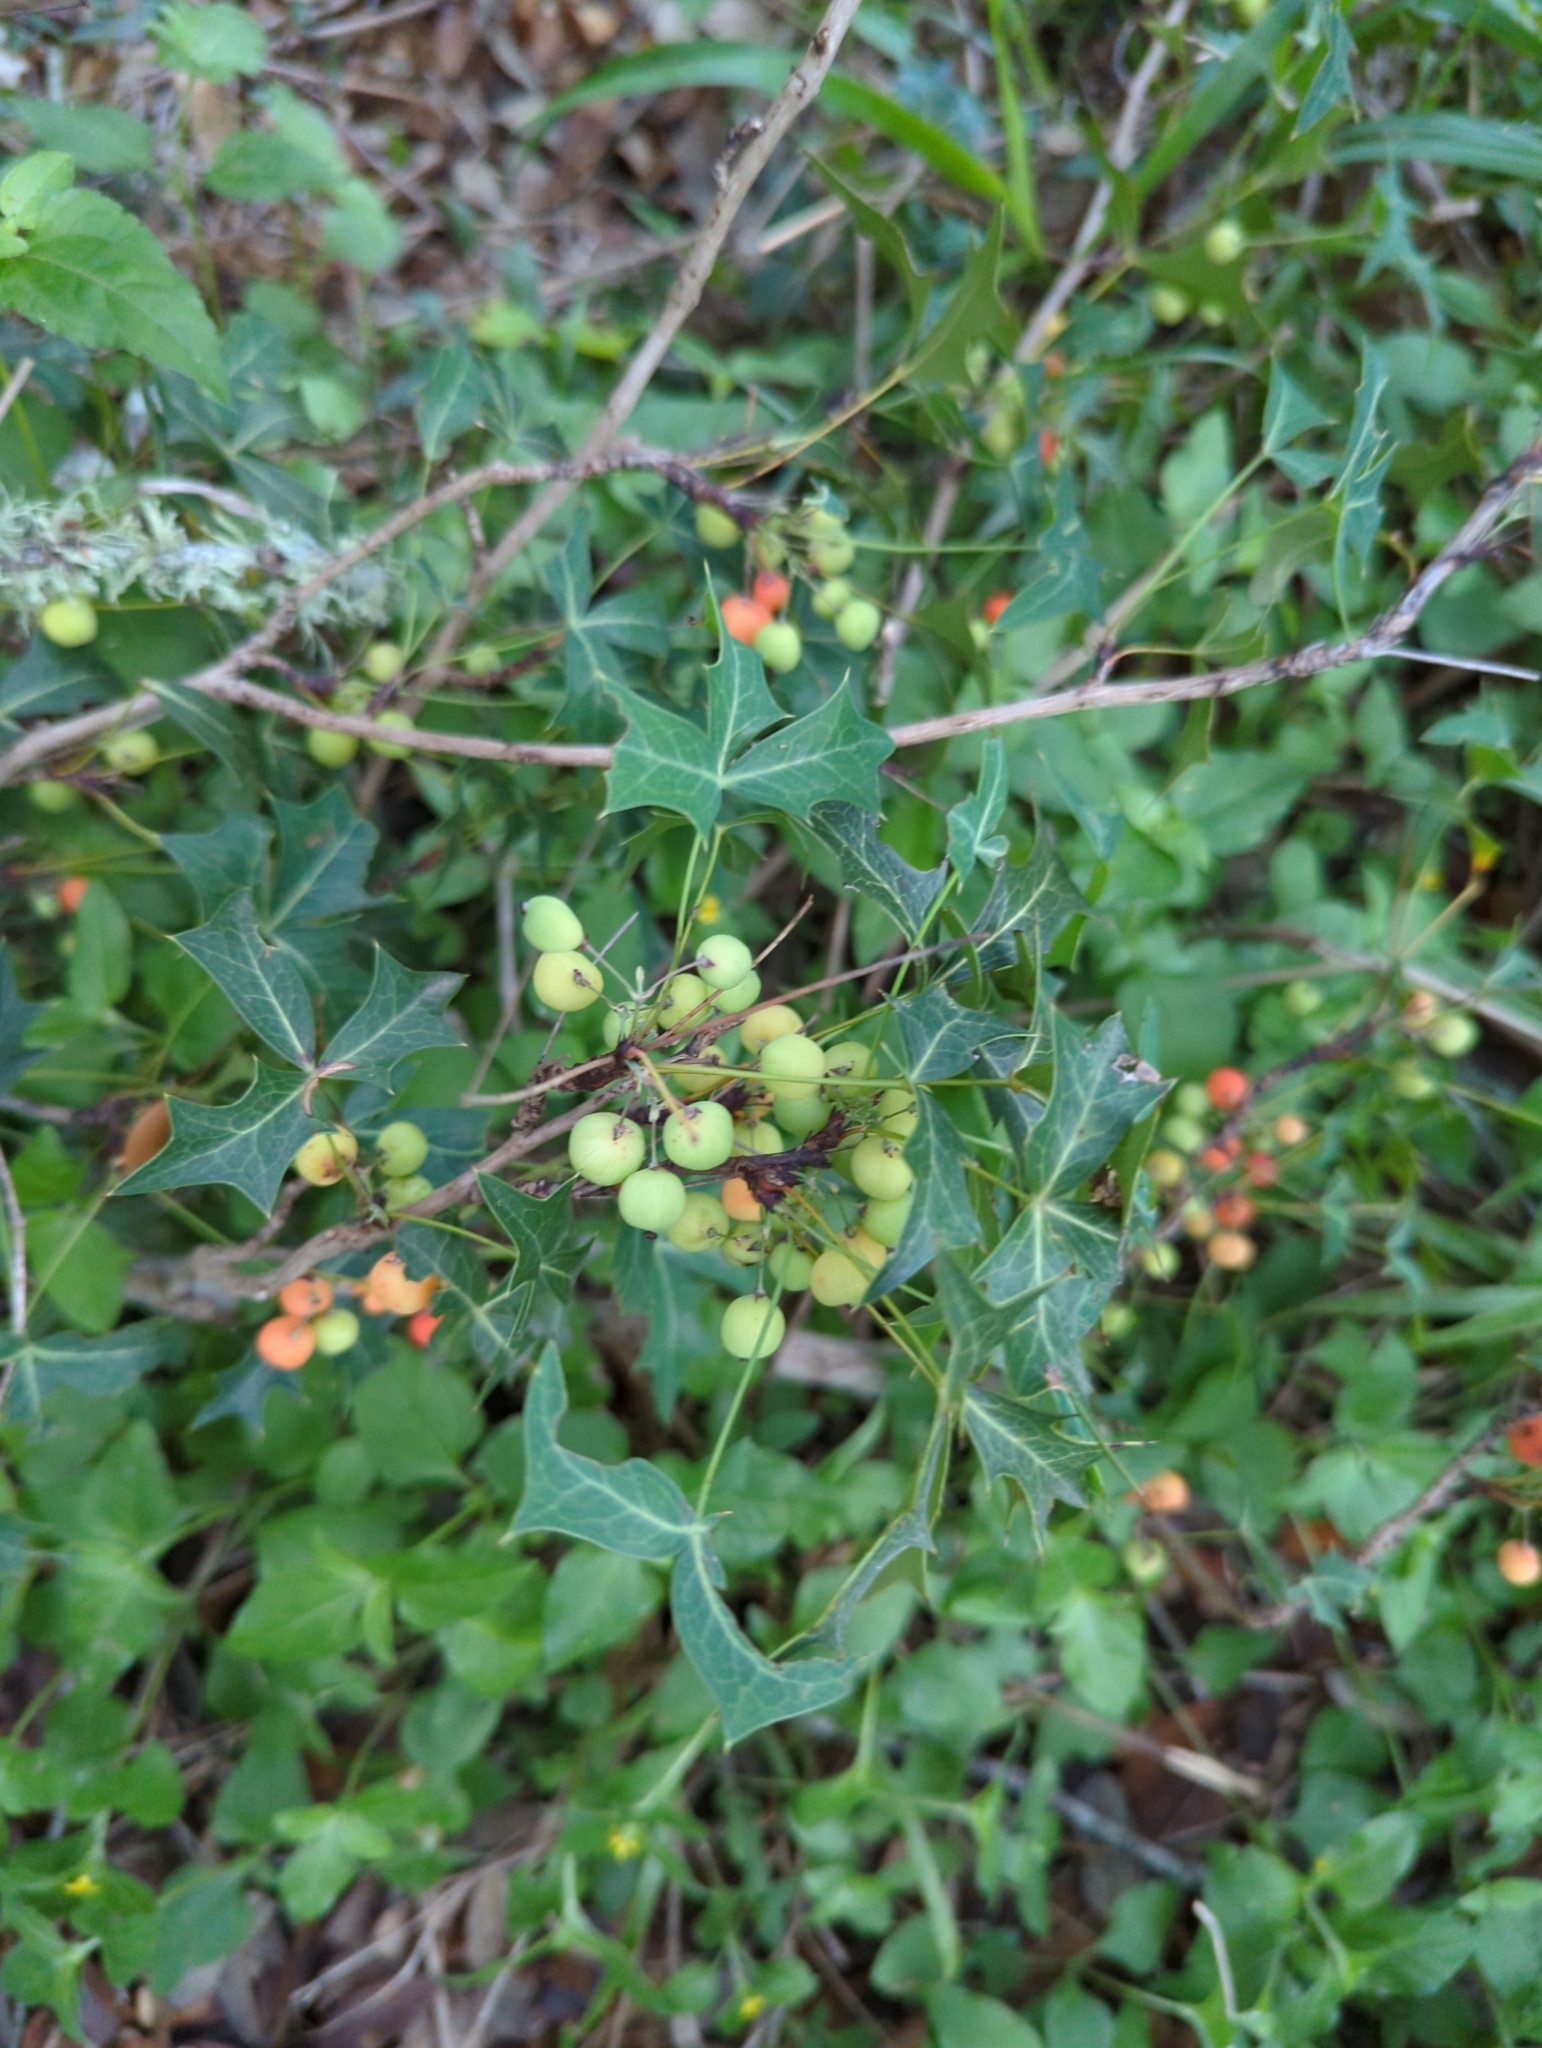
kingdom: Plantae
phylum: Tracheophyta
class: Magnoliopsida
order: Ranunculales
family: Berberidaceae
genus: Alloberberis
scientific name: Alloberberis trifoliolata
